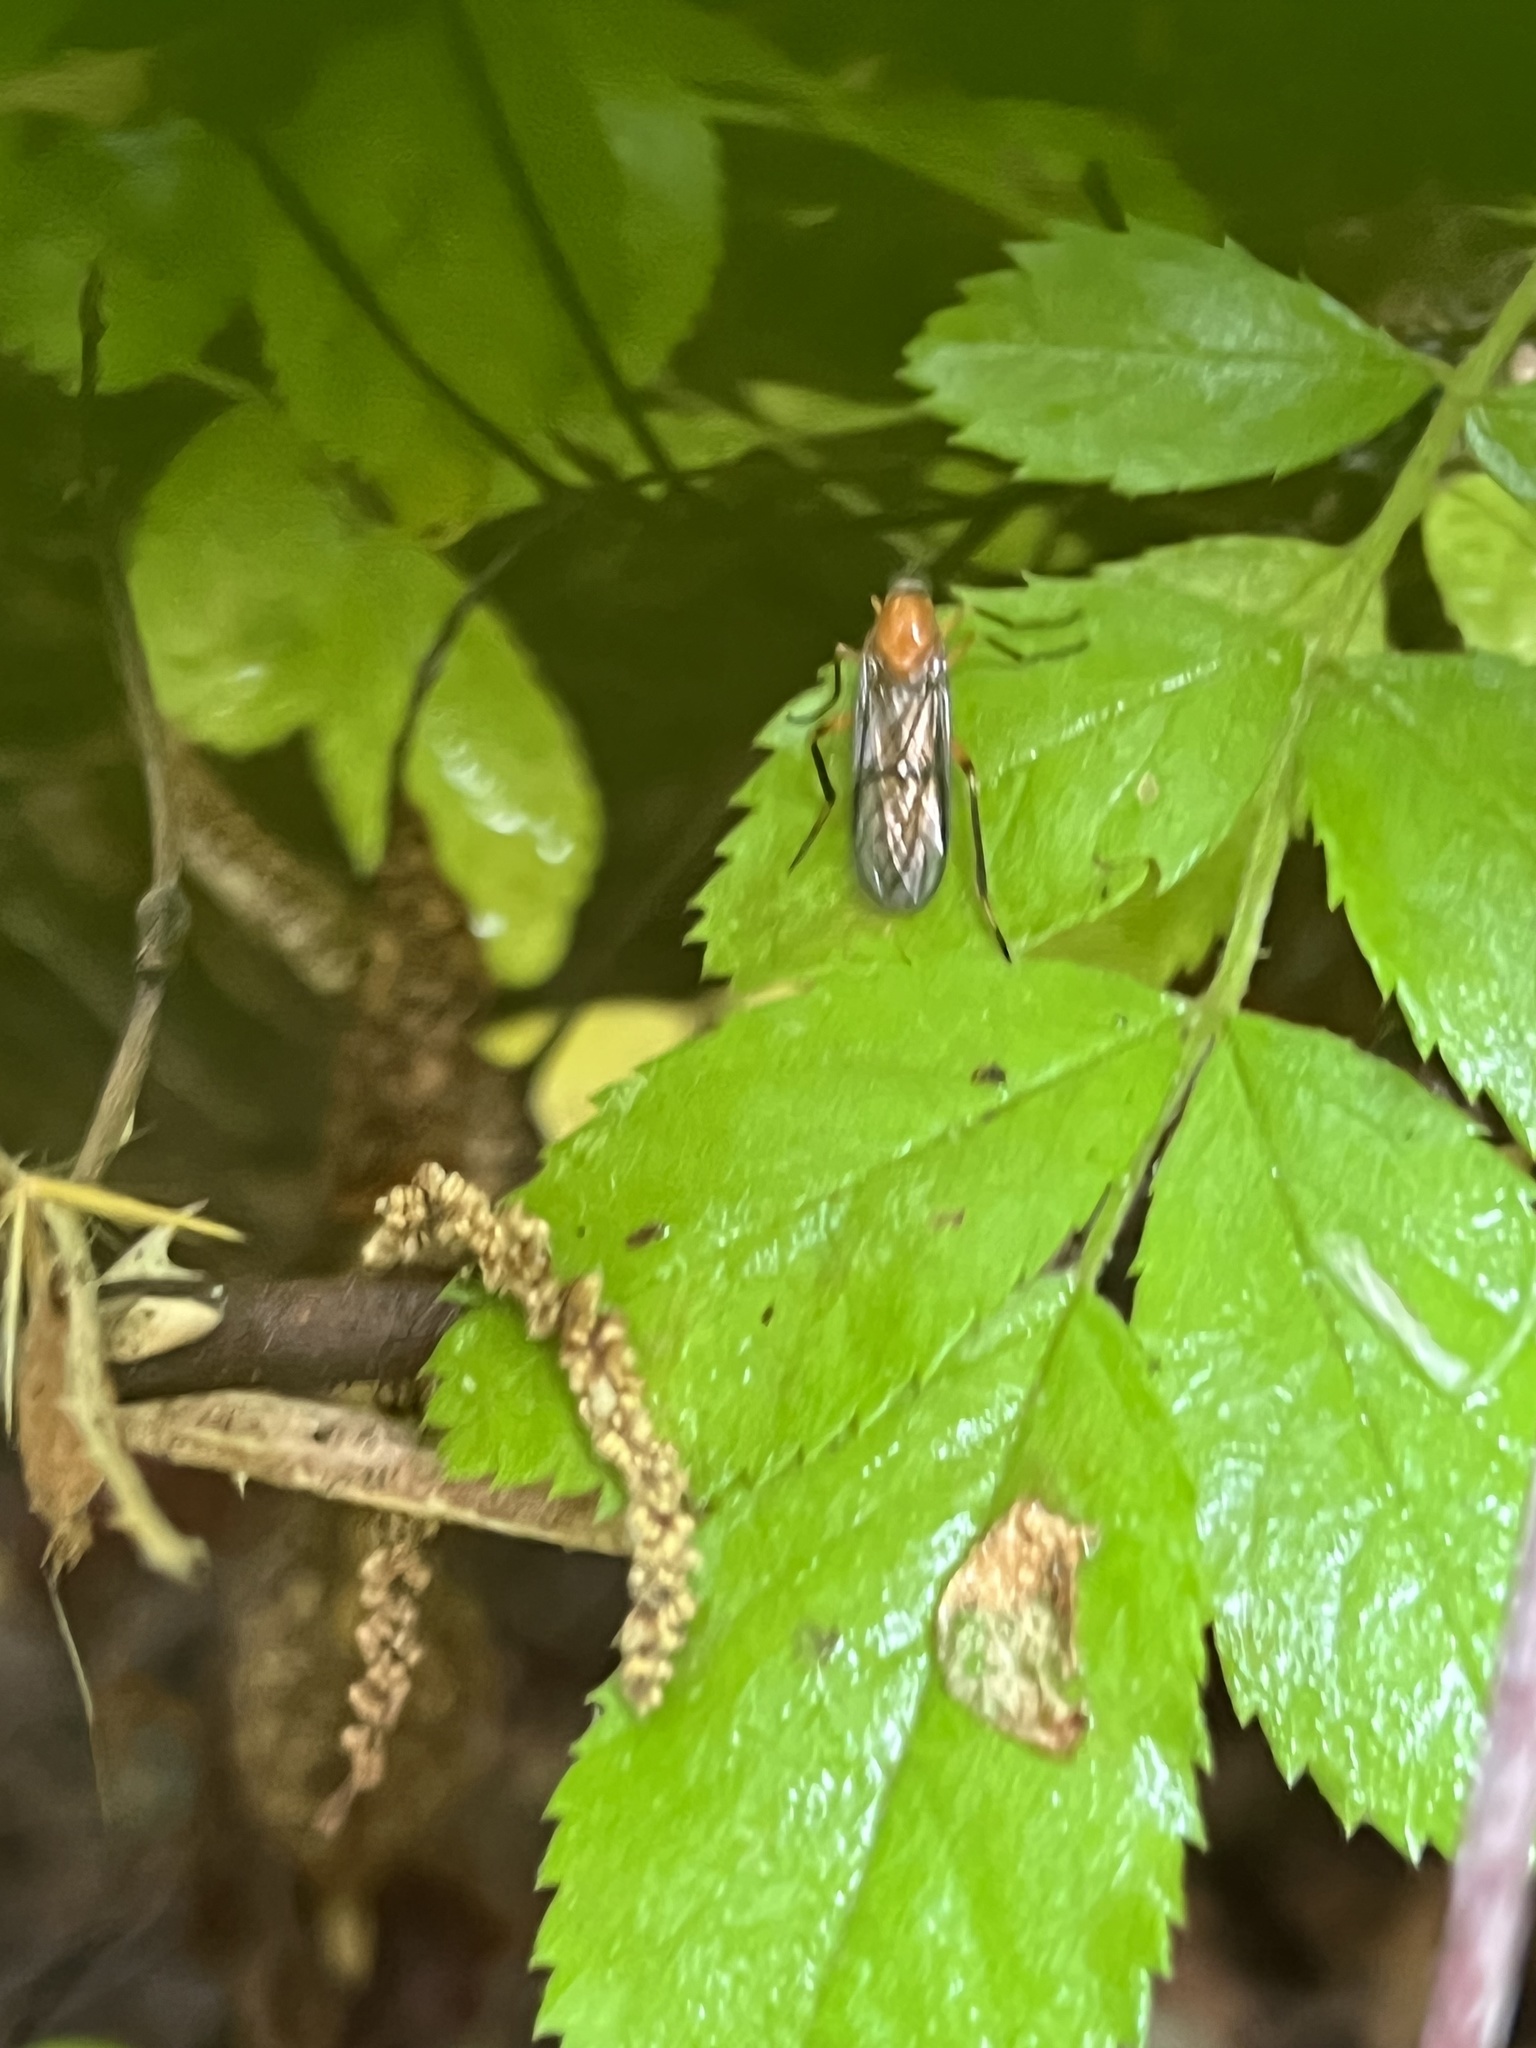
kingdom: Animalia
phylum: Arthropoda
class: Insecta
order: Diptera
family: Xylophagidae
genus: Dialysis
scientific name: Dialysis rufithorax
